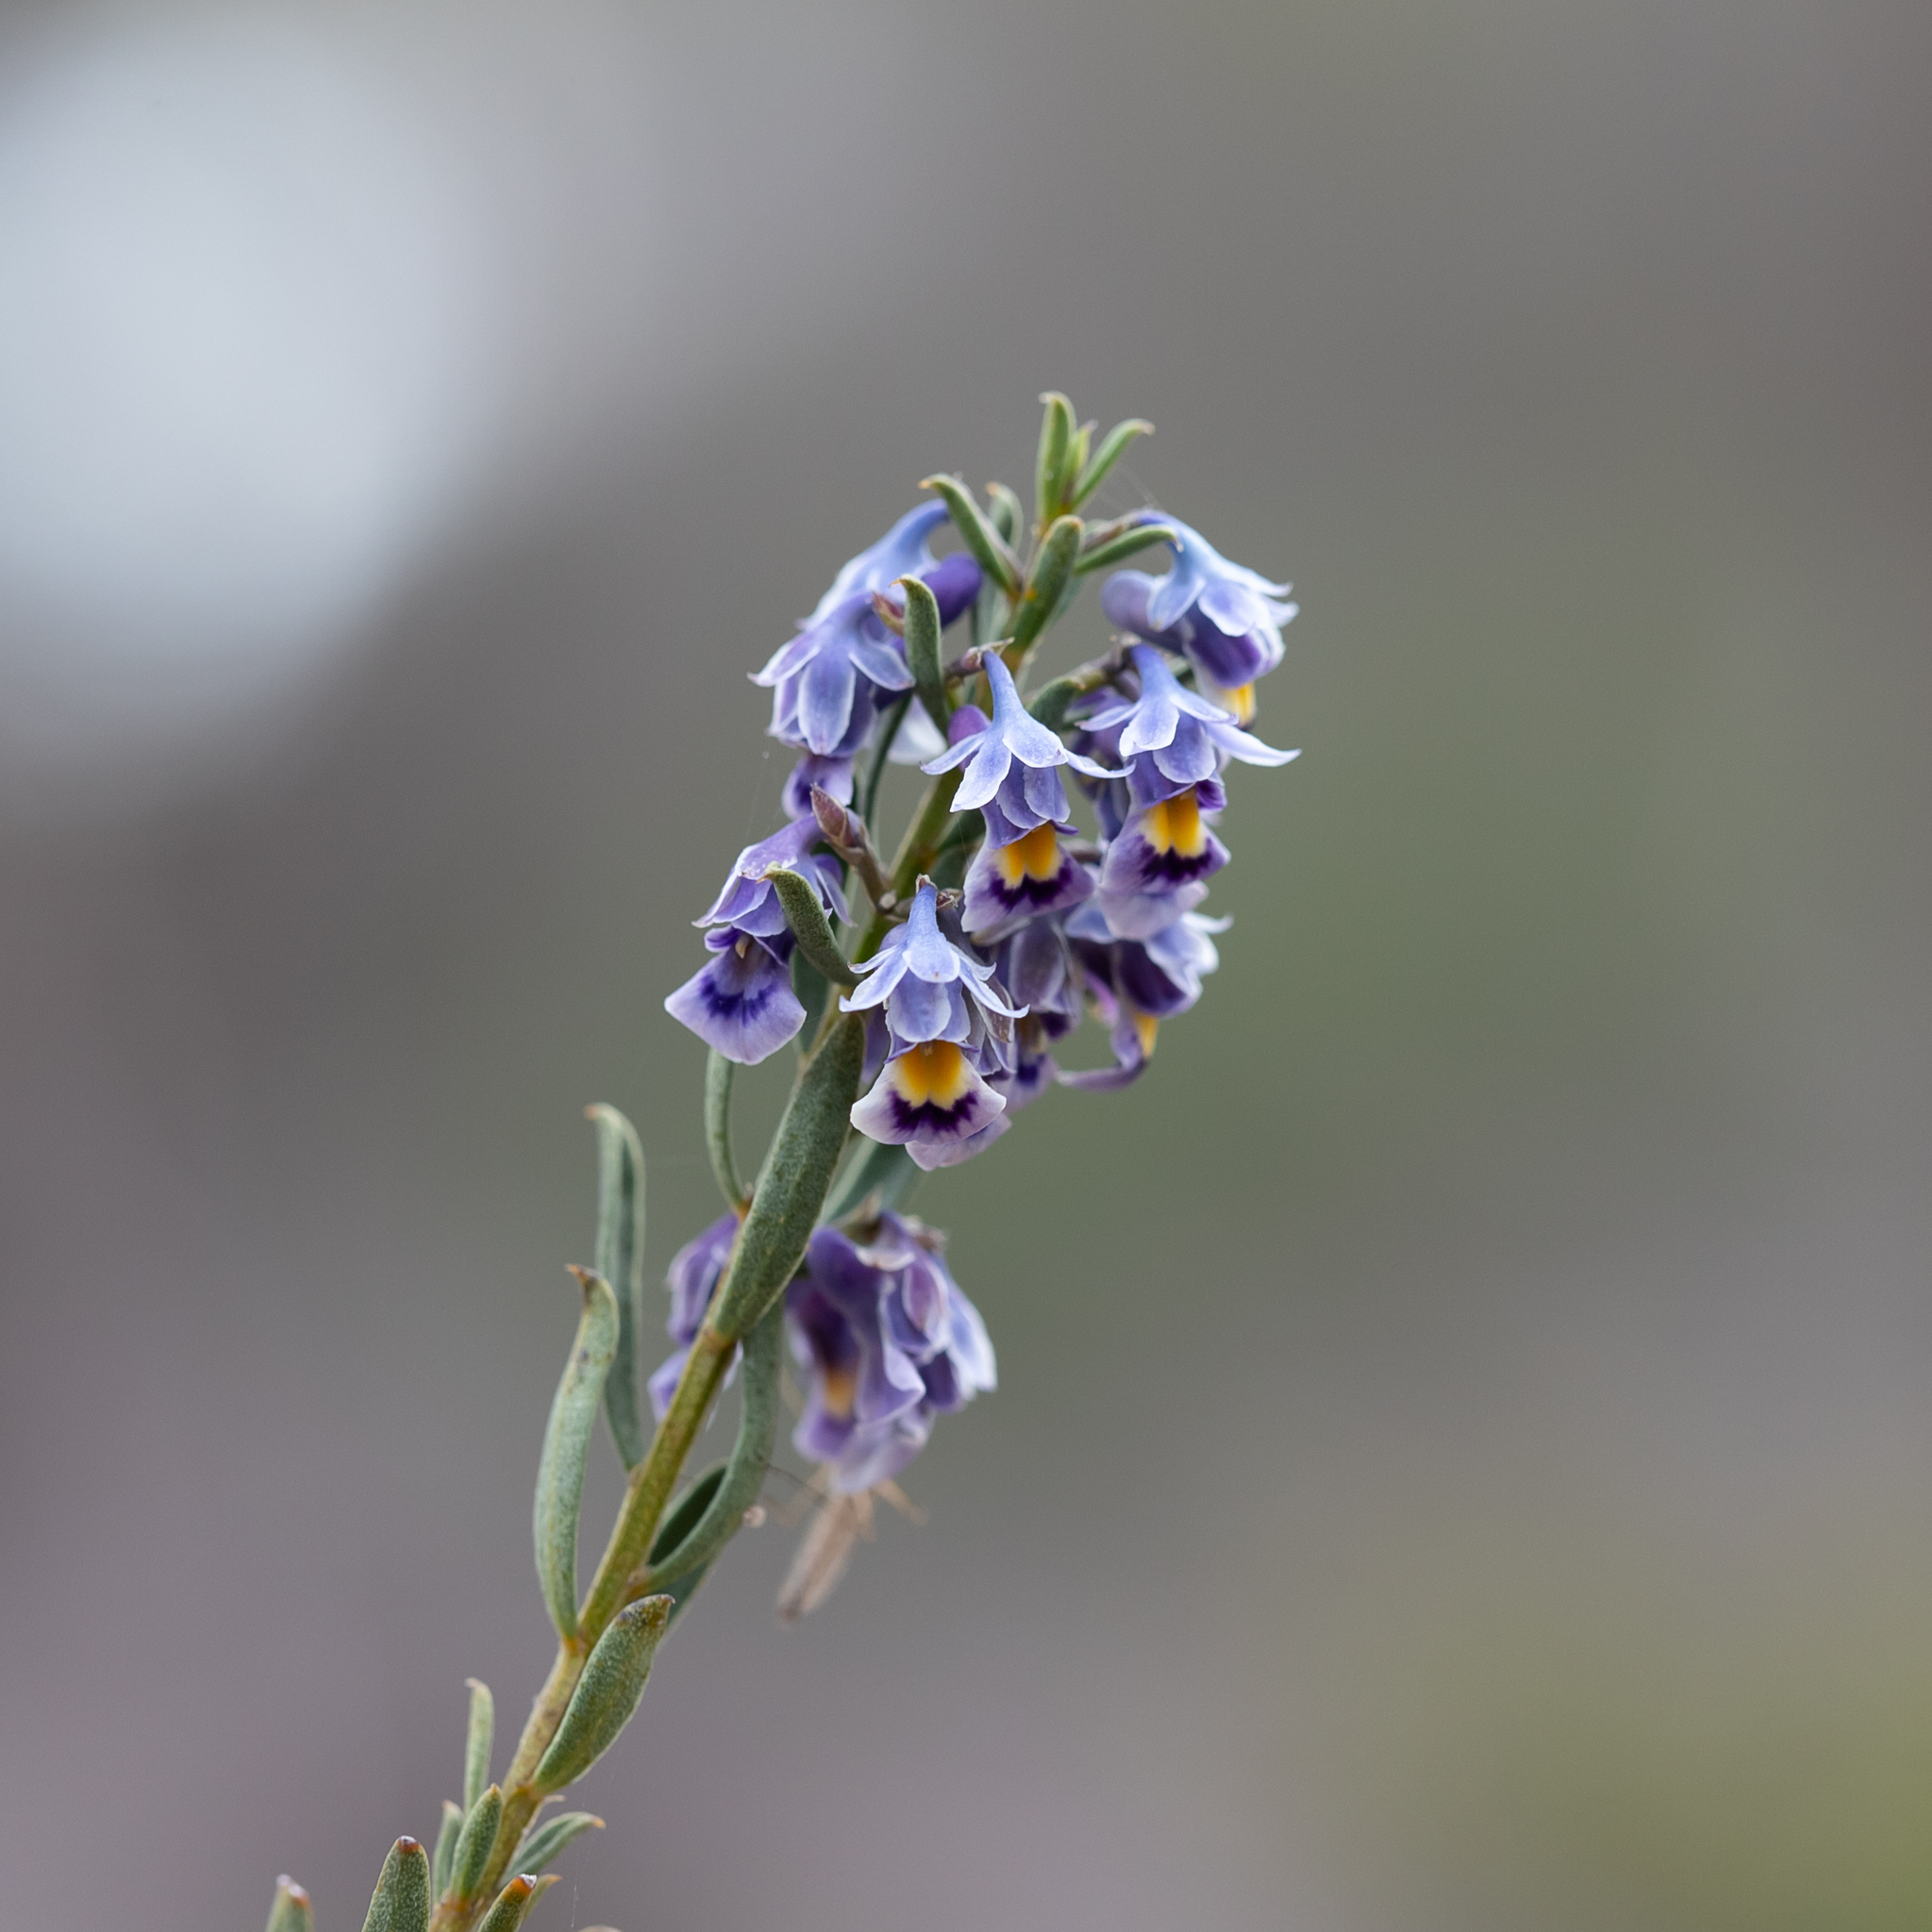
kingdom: Plantae
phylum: Tracheophyta
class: Magnoliopsida
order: Malpighiales
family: Violaceae
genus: Pigea
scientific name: Pigea floribunda
